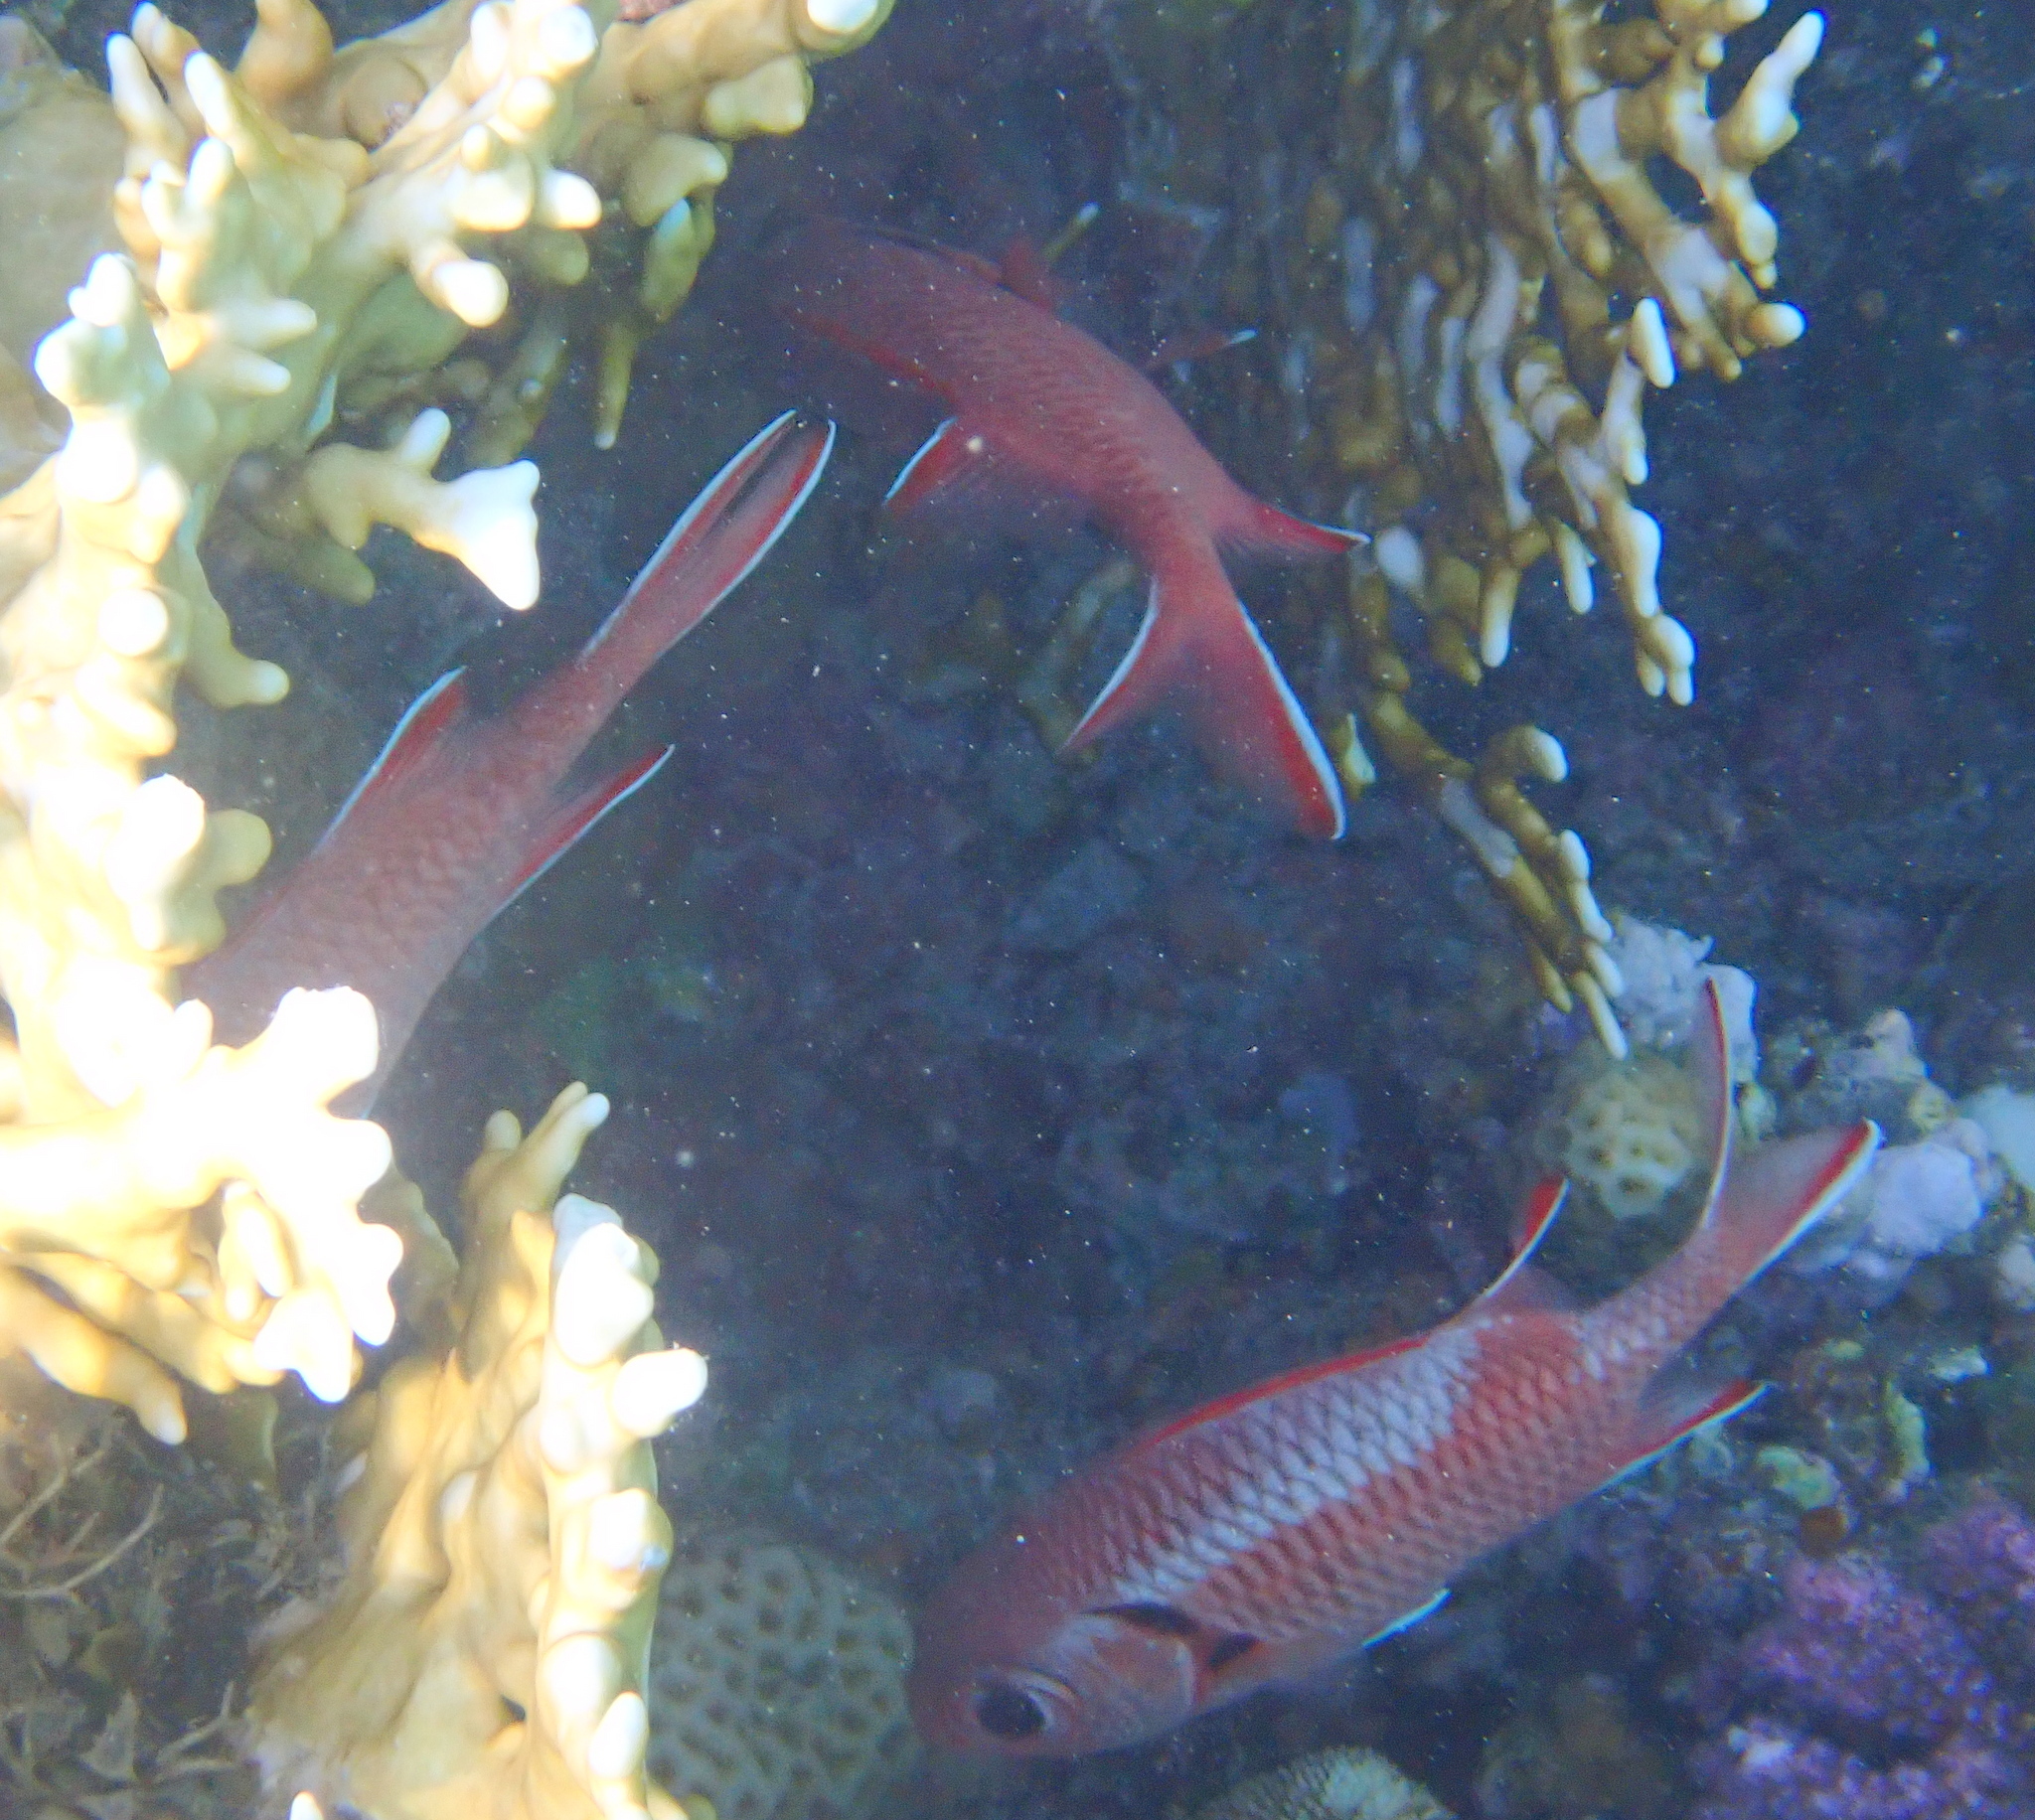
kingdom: Animalia
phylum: Chordata
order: Beryciformes
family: Holocentridae
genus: Myripristis
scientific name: Myripristis murdjan
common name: Big-eye soldierfish
